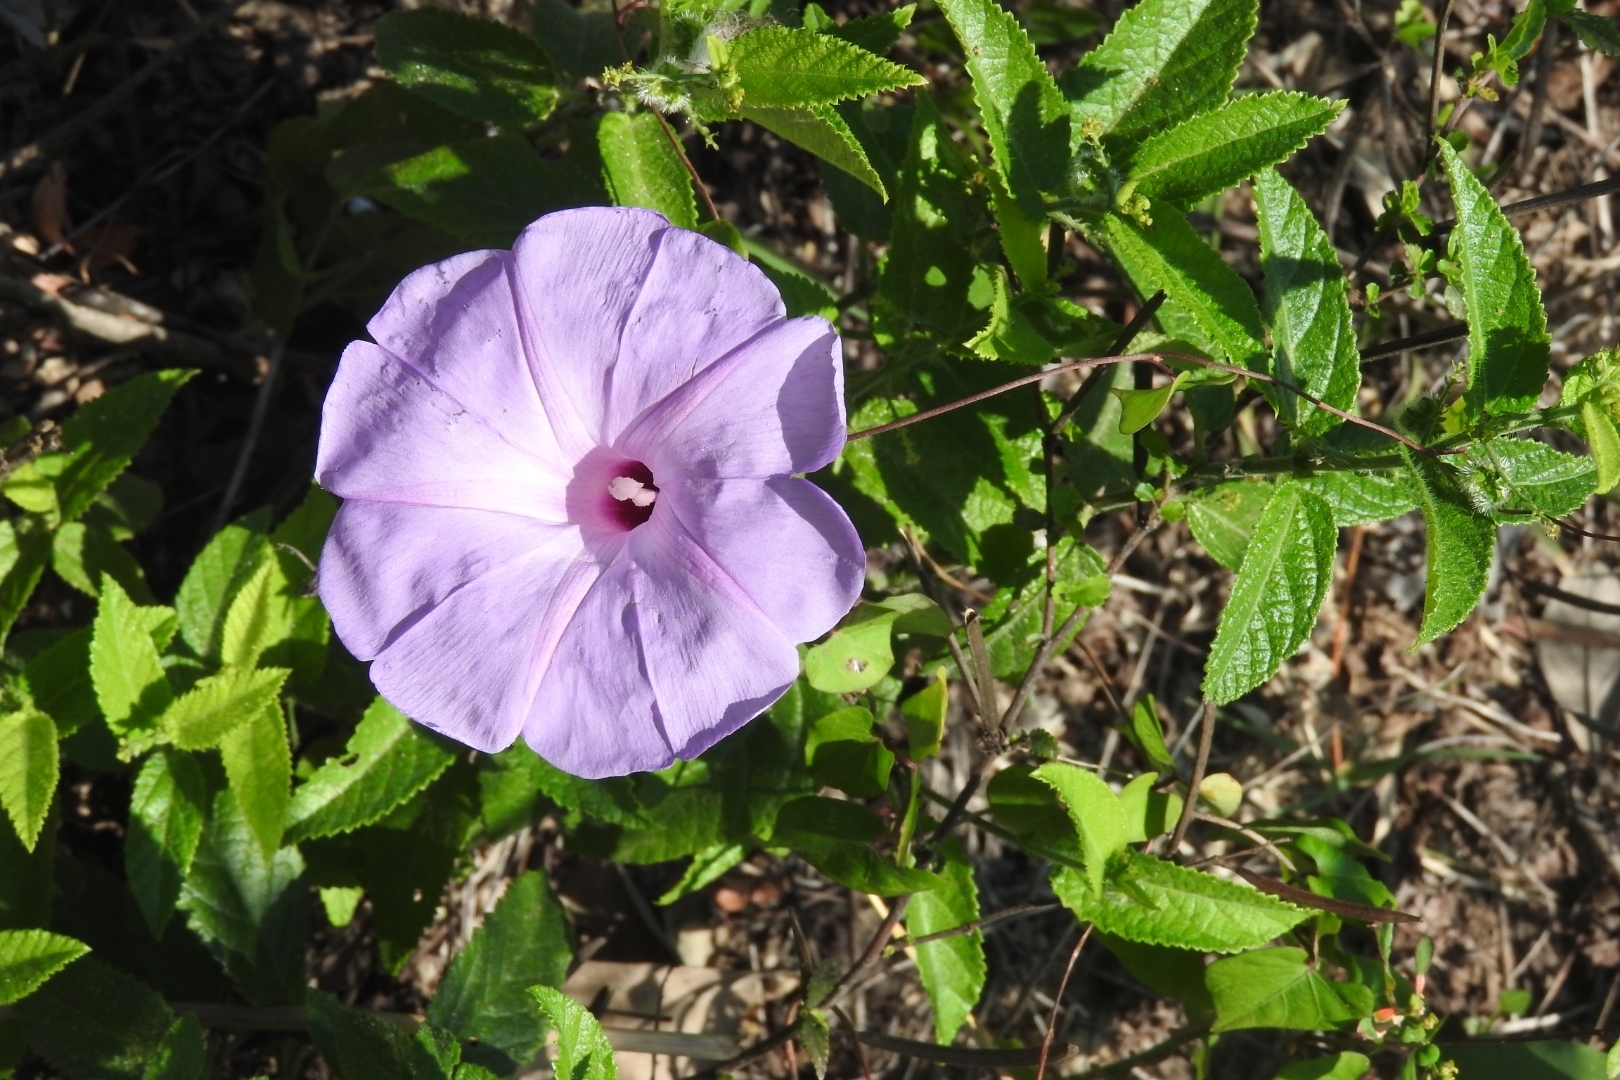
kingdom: Plantae
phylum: Tracheophyta
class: Magnoliopsida
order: Solanales
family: Convolvulaceae
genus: Ipomoea
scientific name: Ipomoea crinicalyx
